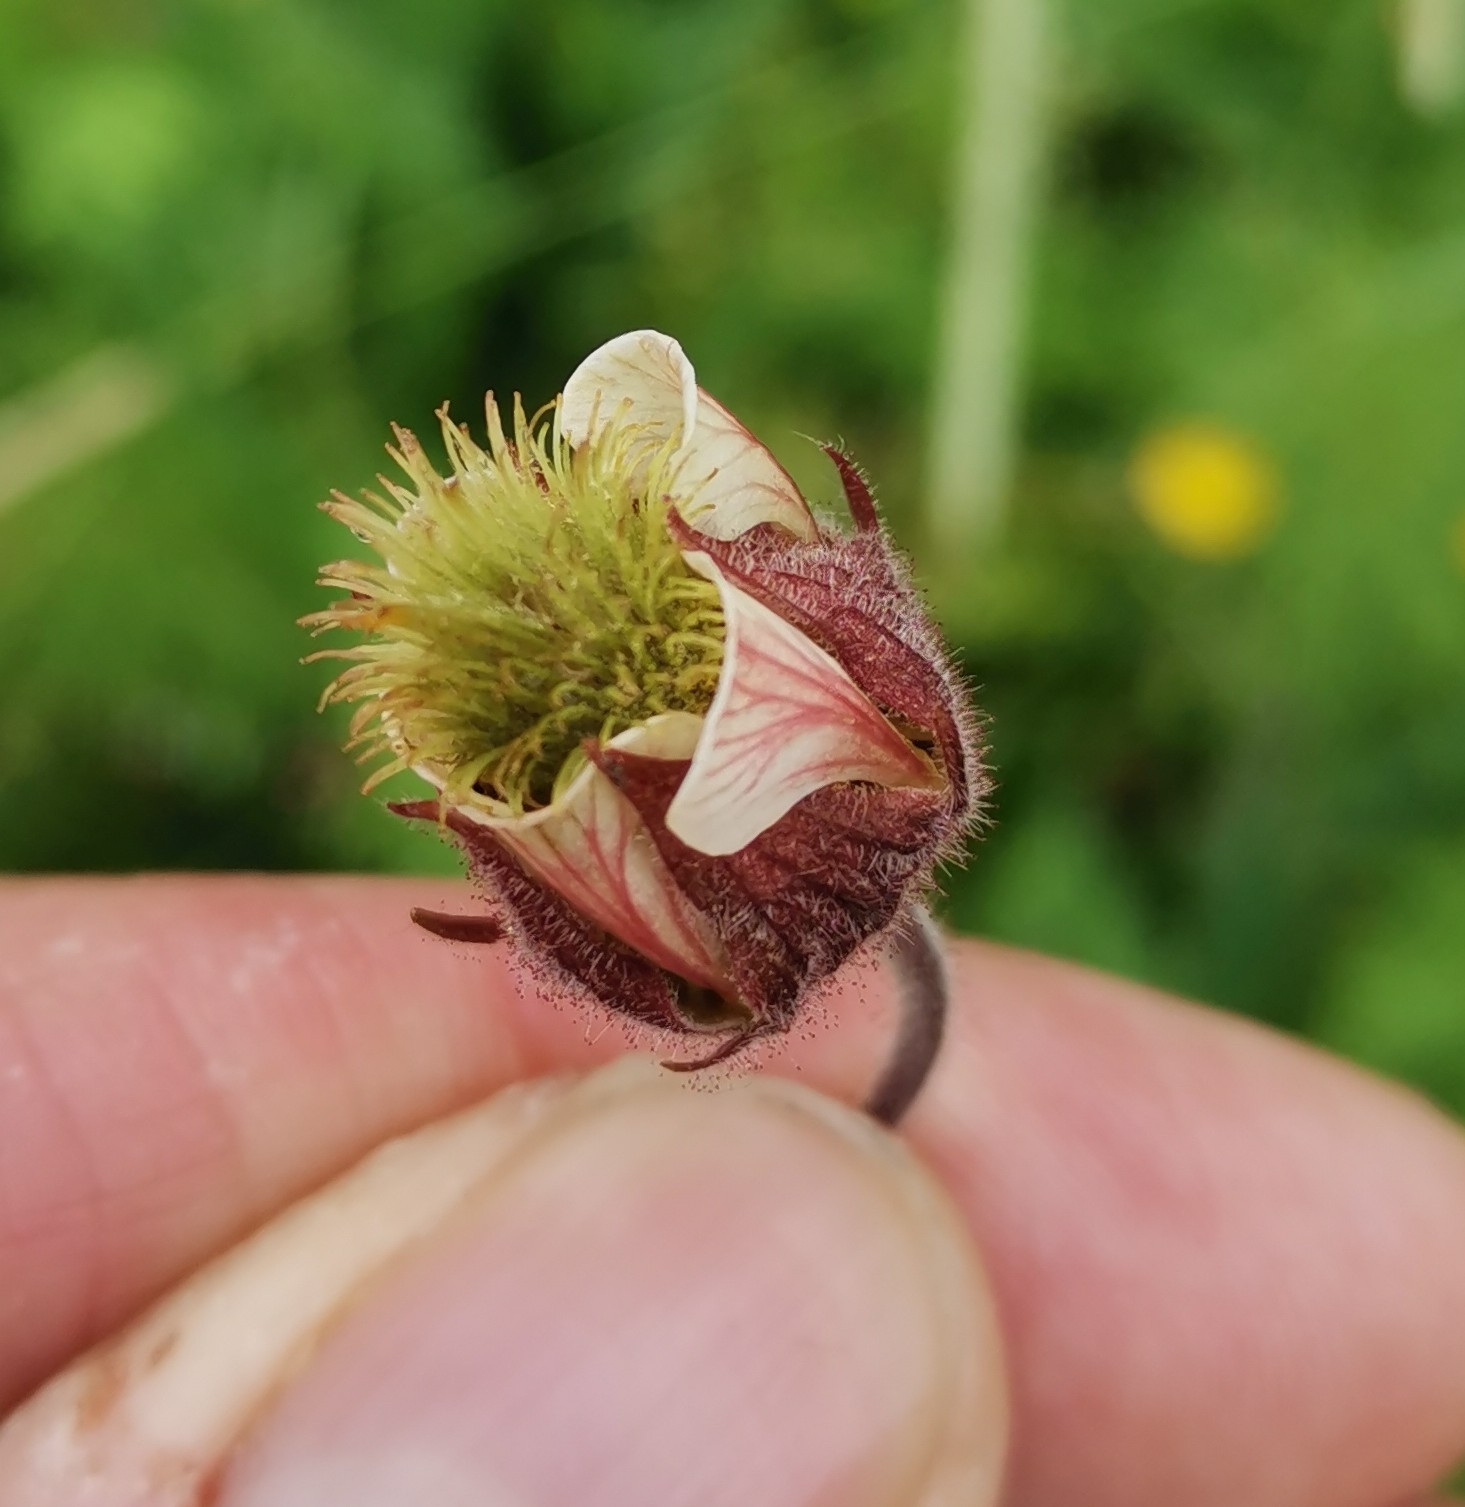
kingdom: Plantae
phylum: Tracheophyta
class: Magnoliopsida
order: Rosales
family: Rosaceae
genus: Geum
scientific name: Geum rivale
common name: Water avens
